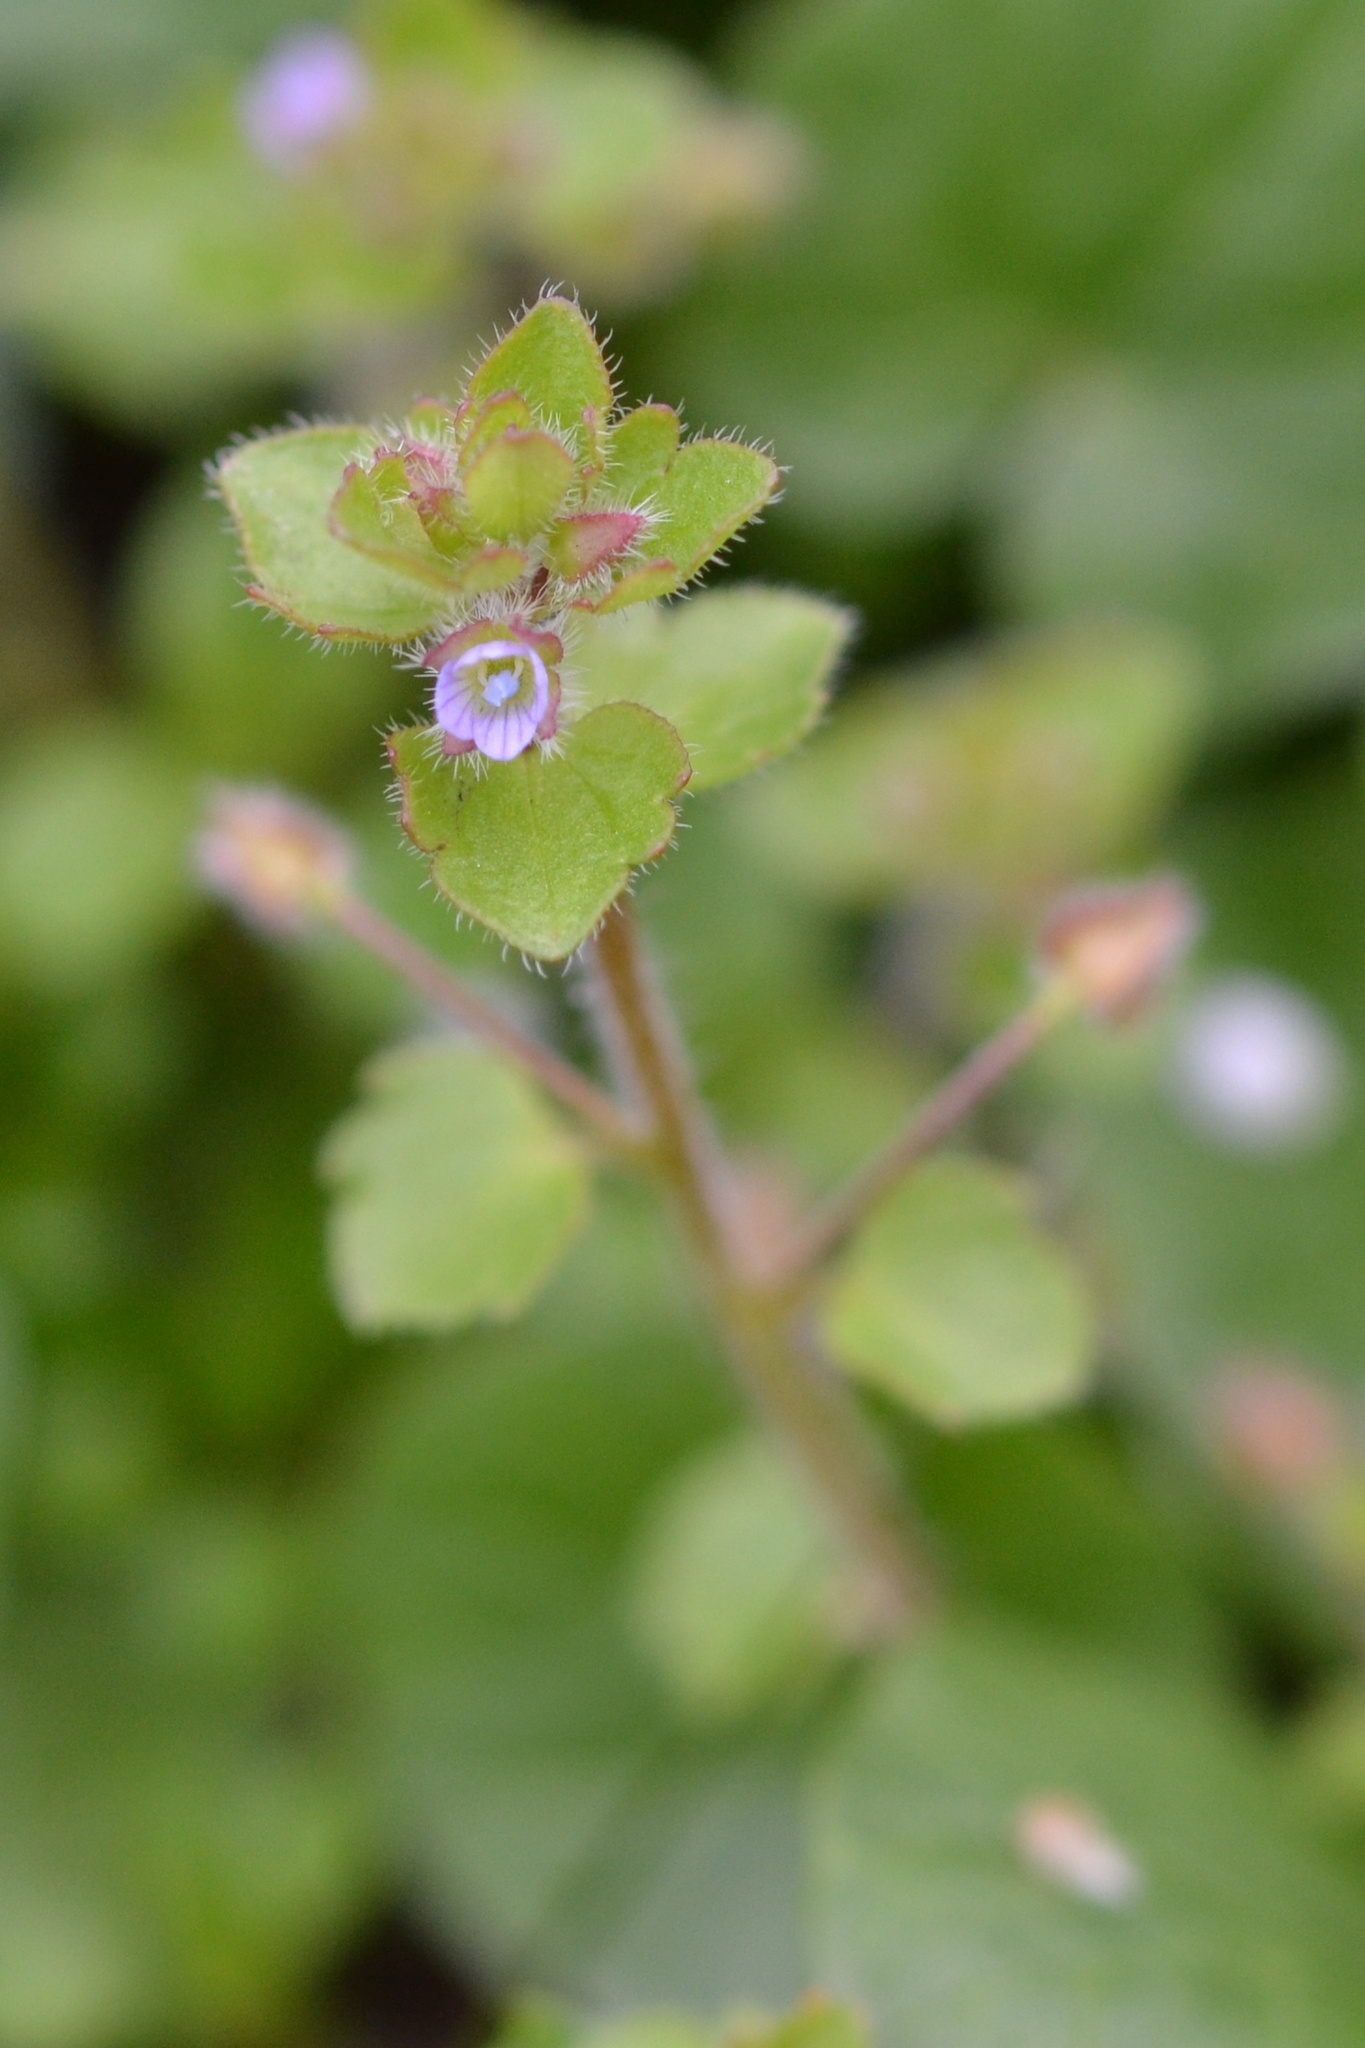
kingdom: Plantae
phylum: Tracheophyta
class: Magnoliopsida
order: Lamiales
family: Plantaginaceae
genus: Veronica
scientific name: Veronica sublobata
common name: False ivy-leaved speedwell
